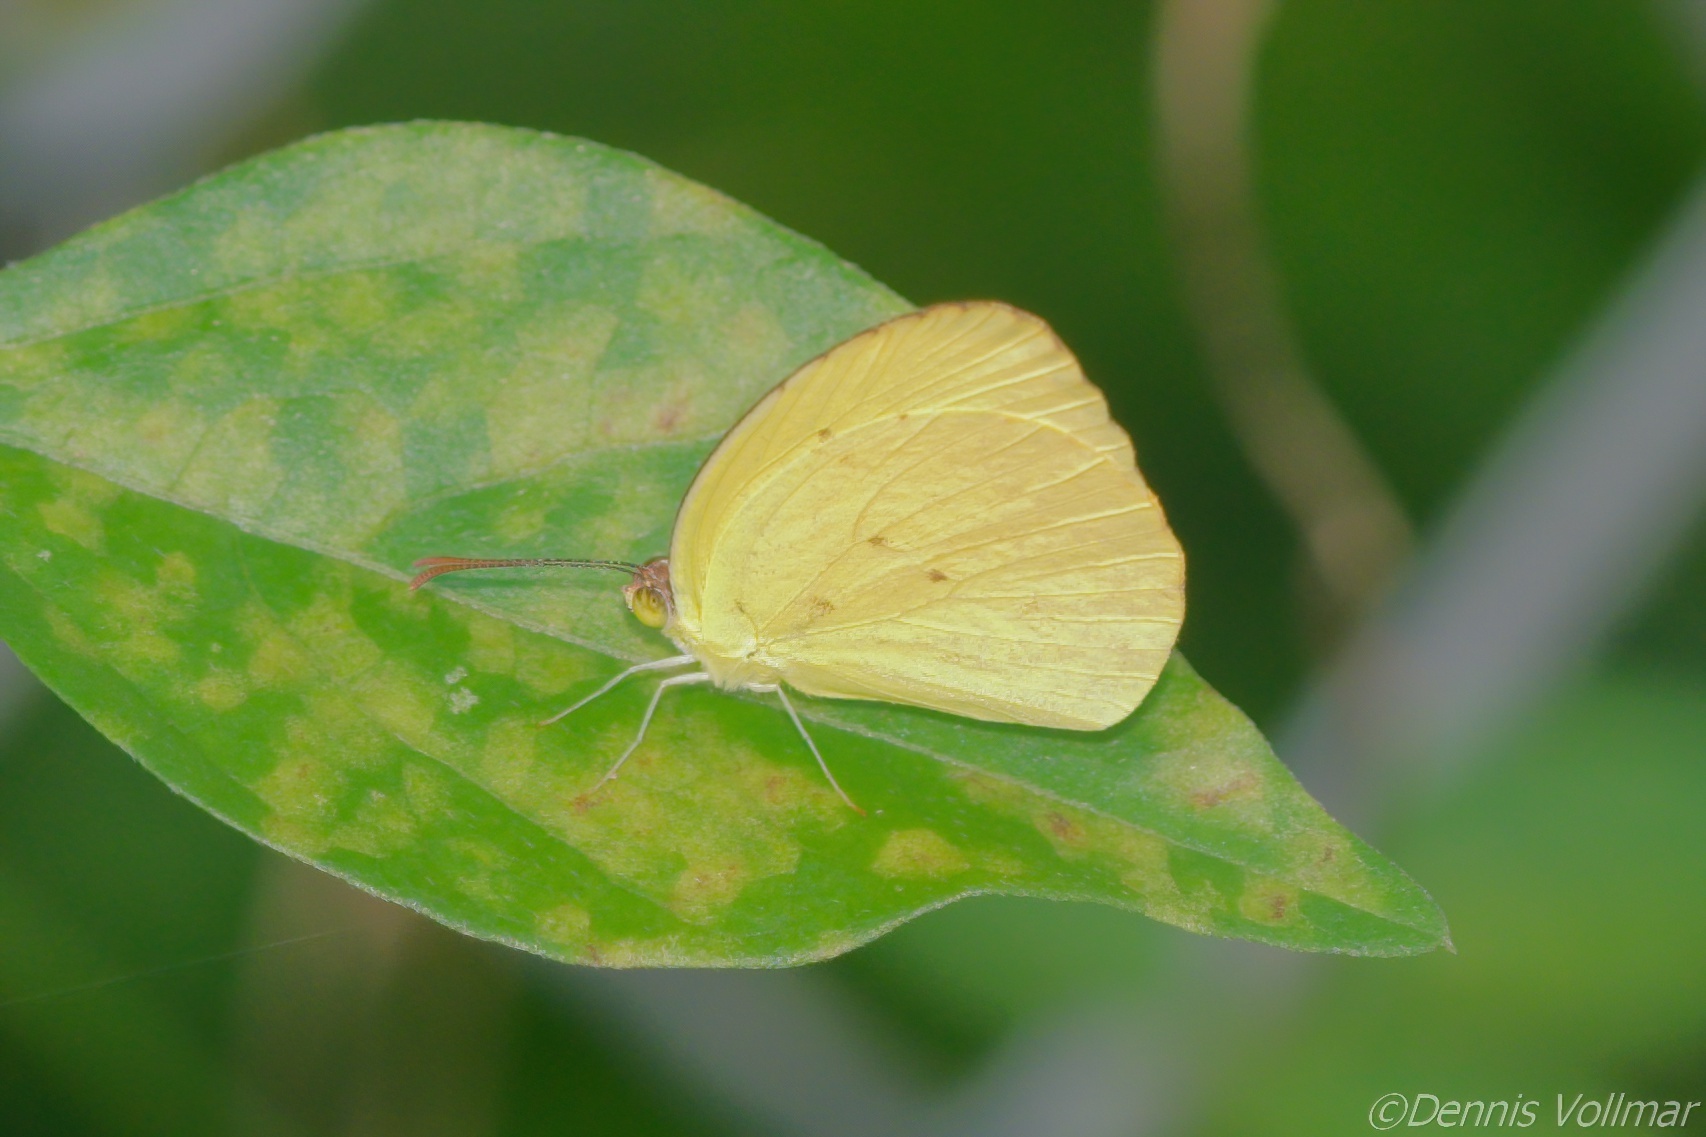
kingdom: Animalia
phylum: Arthropoda
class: Insecta
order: Lepidoptera
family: Pieridae
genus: Pyrisitia
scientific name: Pyrisitia dina
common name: Dina yellow
